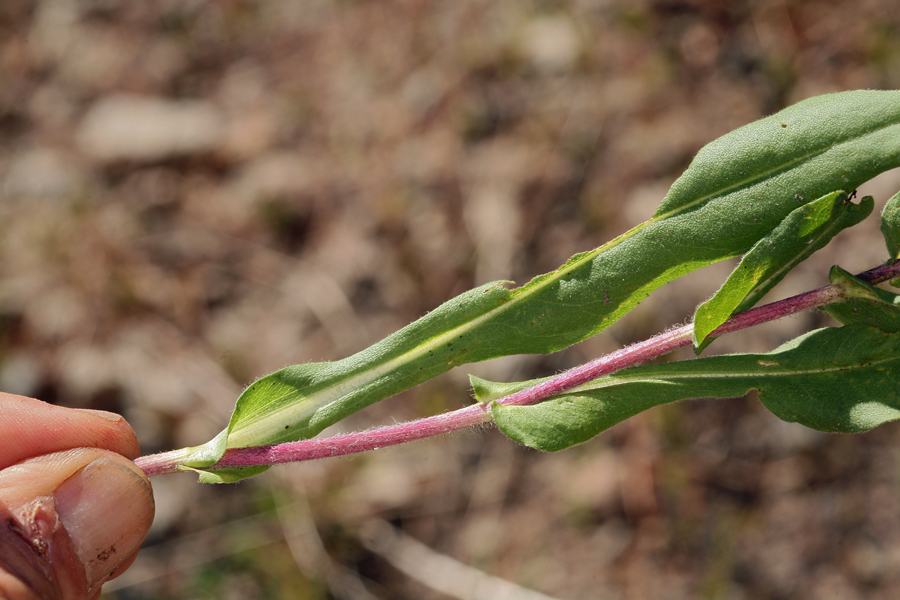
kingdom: Plantae
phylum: Tracheophyta
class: Magnoliopsida
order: Asterales
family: Asteraceae
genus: Eurybia
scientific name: Eurybia integrifolia
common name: Thick-stem aster
